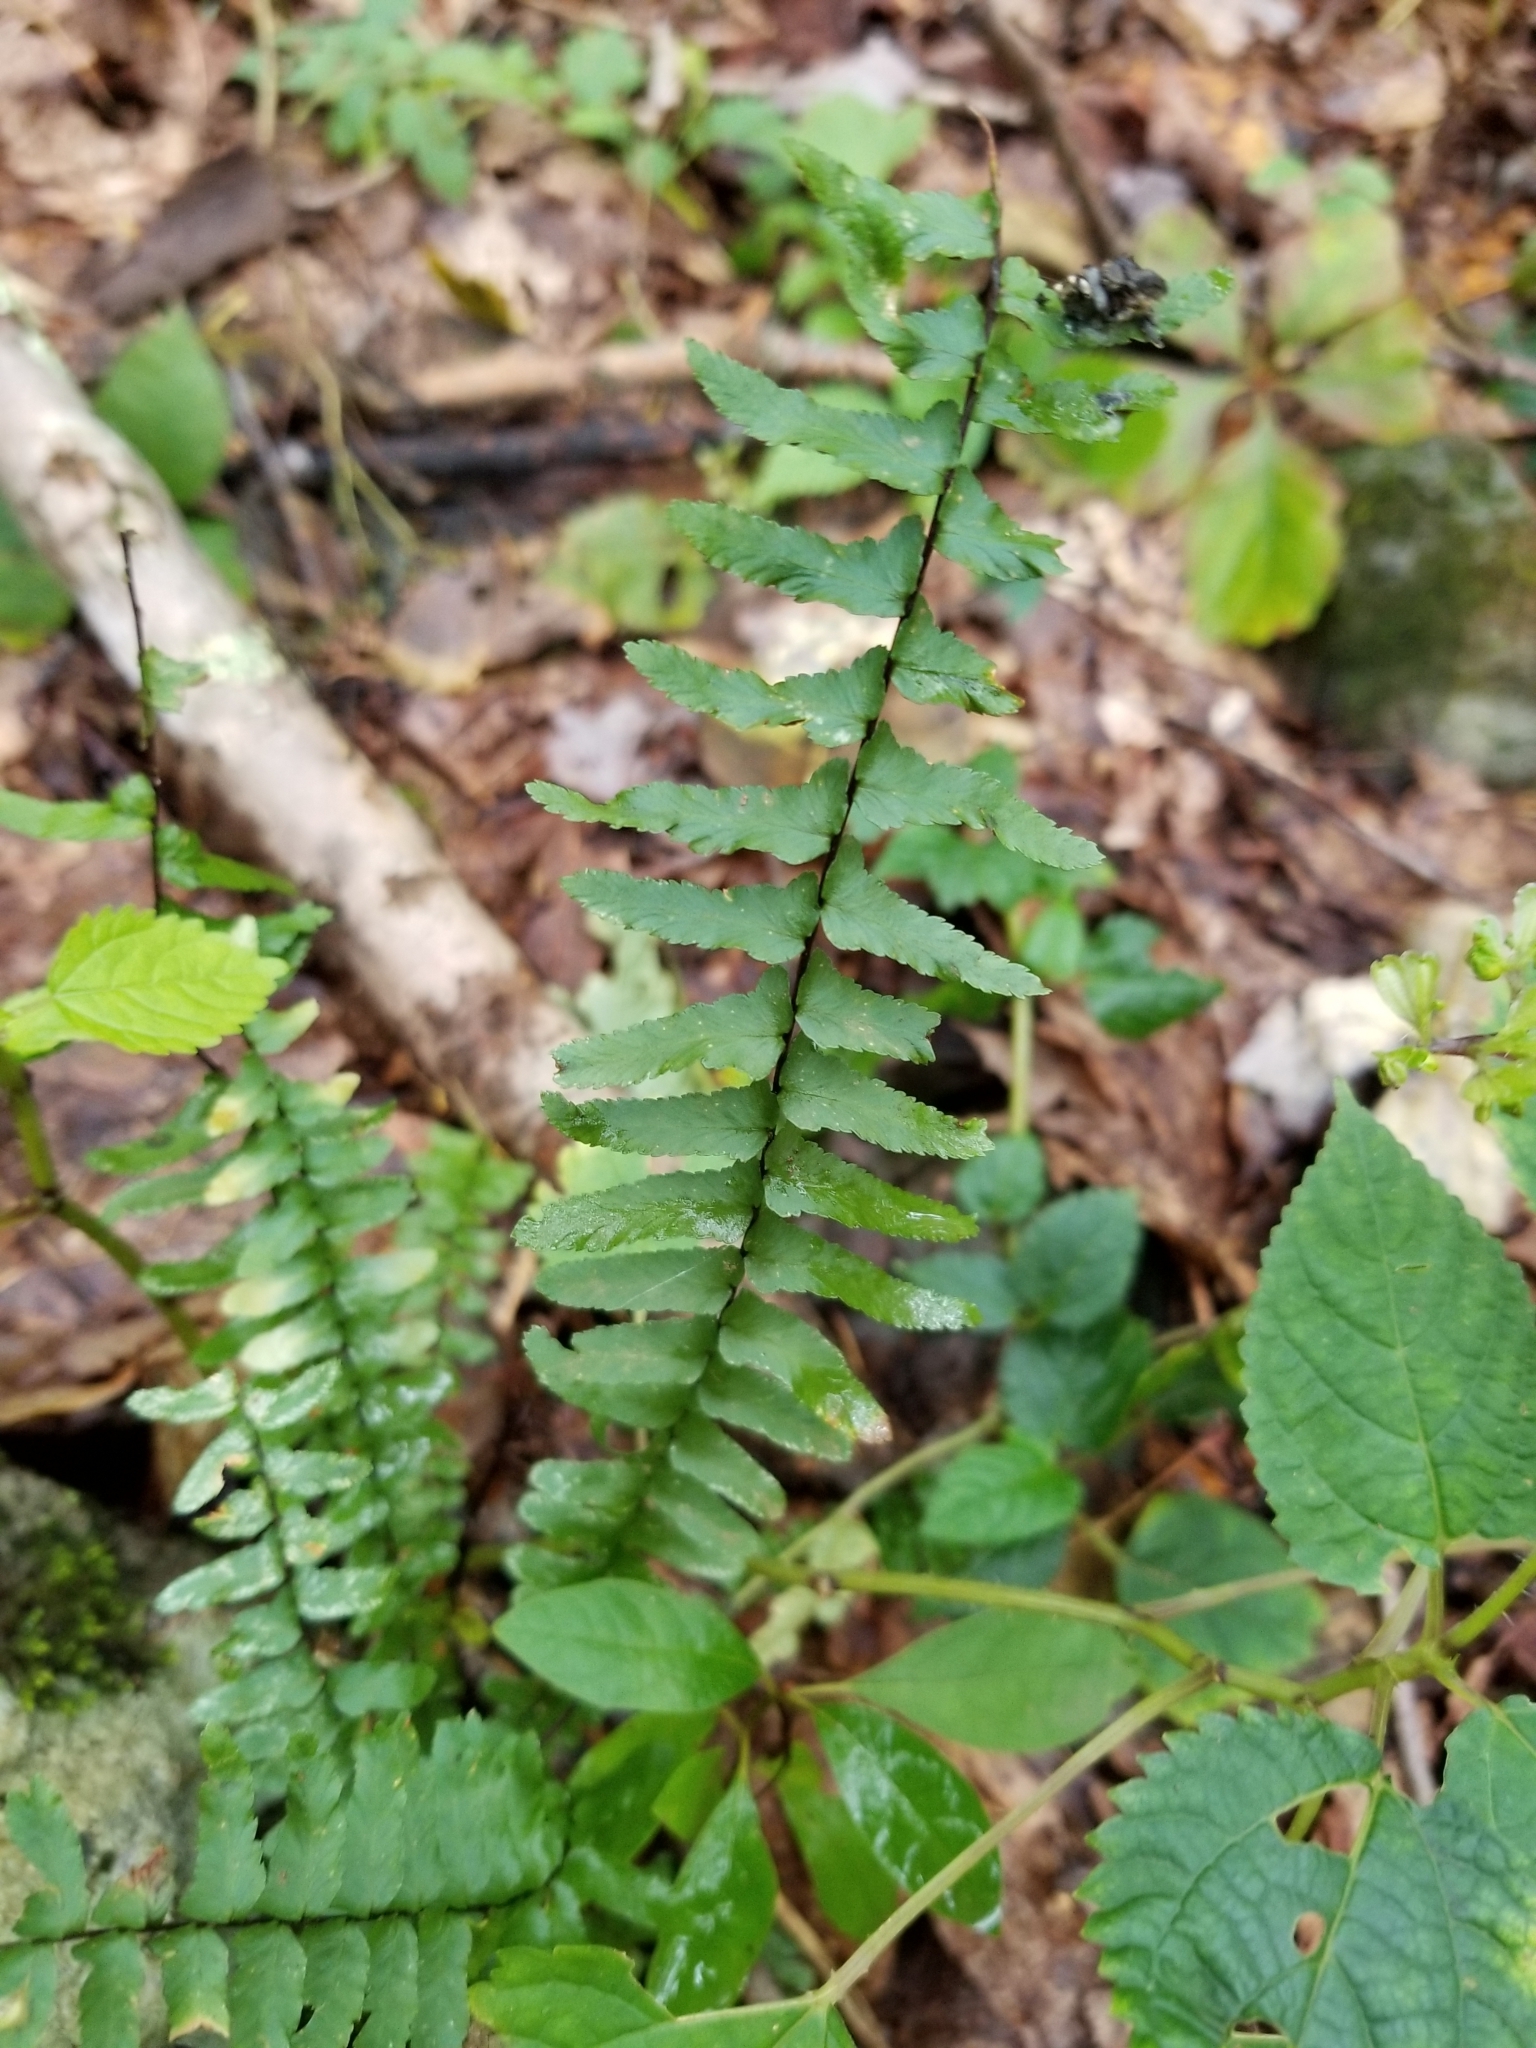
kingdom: Plantae
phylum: Tracheophyta
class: Polypodiopsida
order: Polypodiales
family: Aspleniaceae
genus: Asplenium
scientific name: Asplenium platyneuron
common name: Ebony spleenwort
